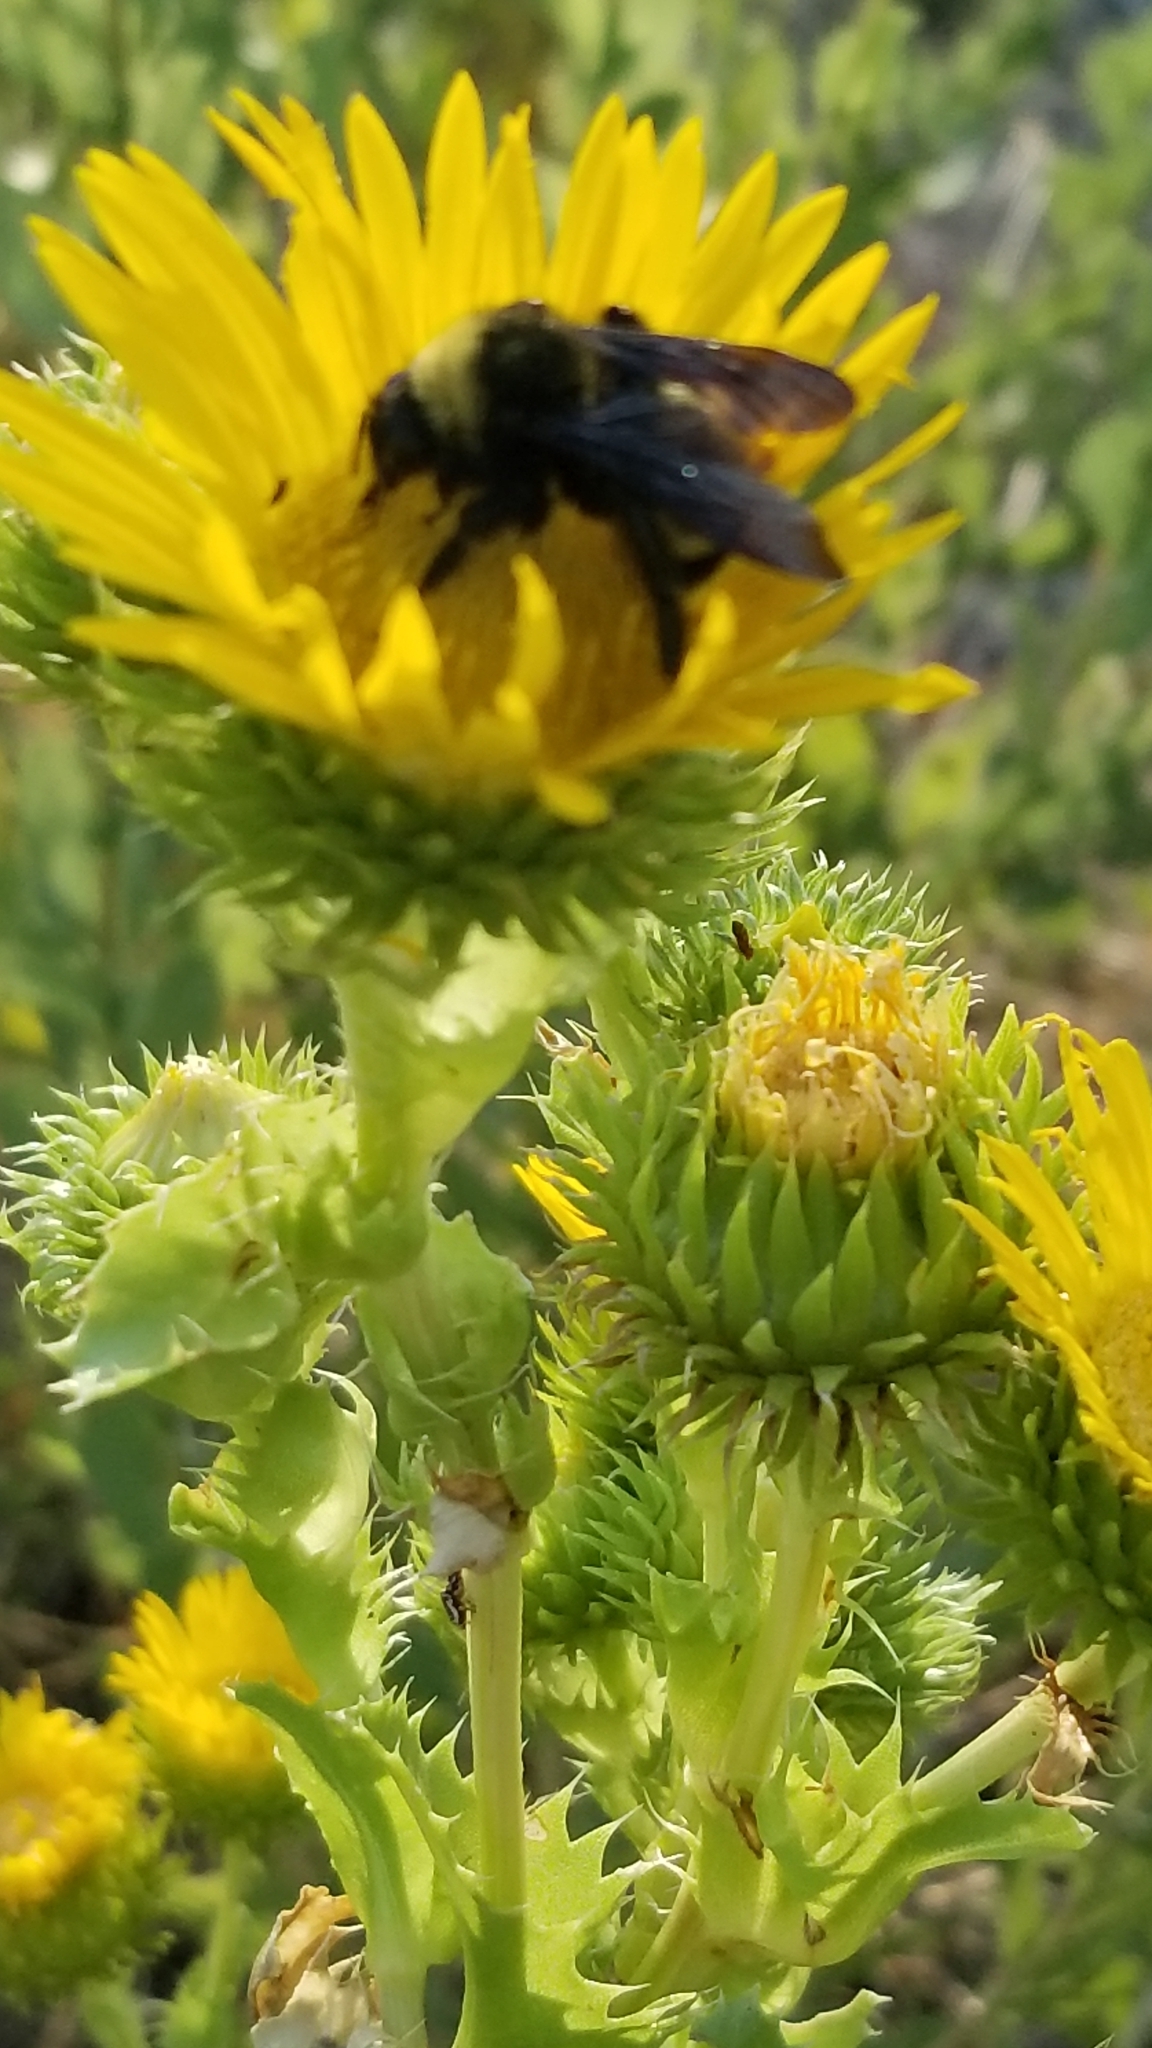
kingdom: Animalia
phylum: Arthropoda
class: Insecta
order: Hymenoptera
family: Apidae
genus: Bombus
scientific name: Bombus pensylvanicus
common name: Bumble bee
